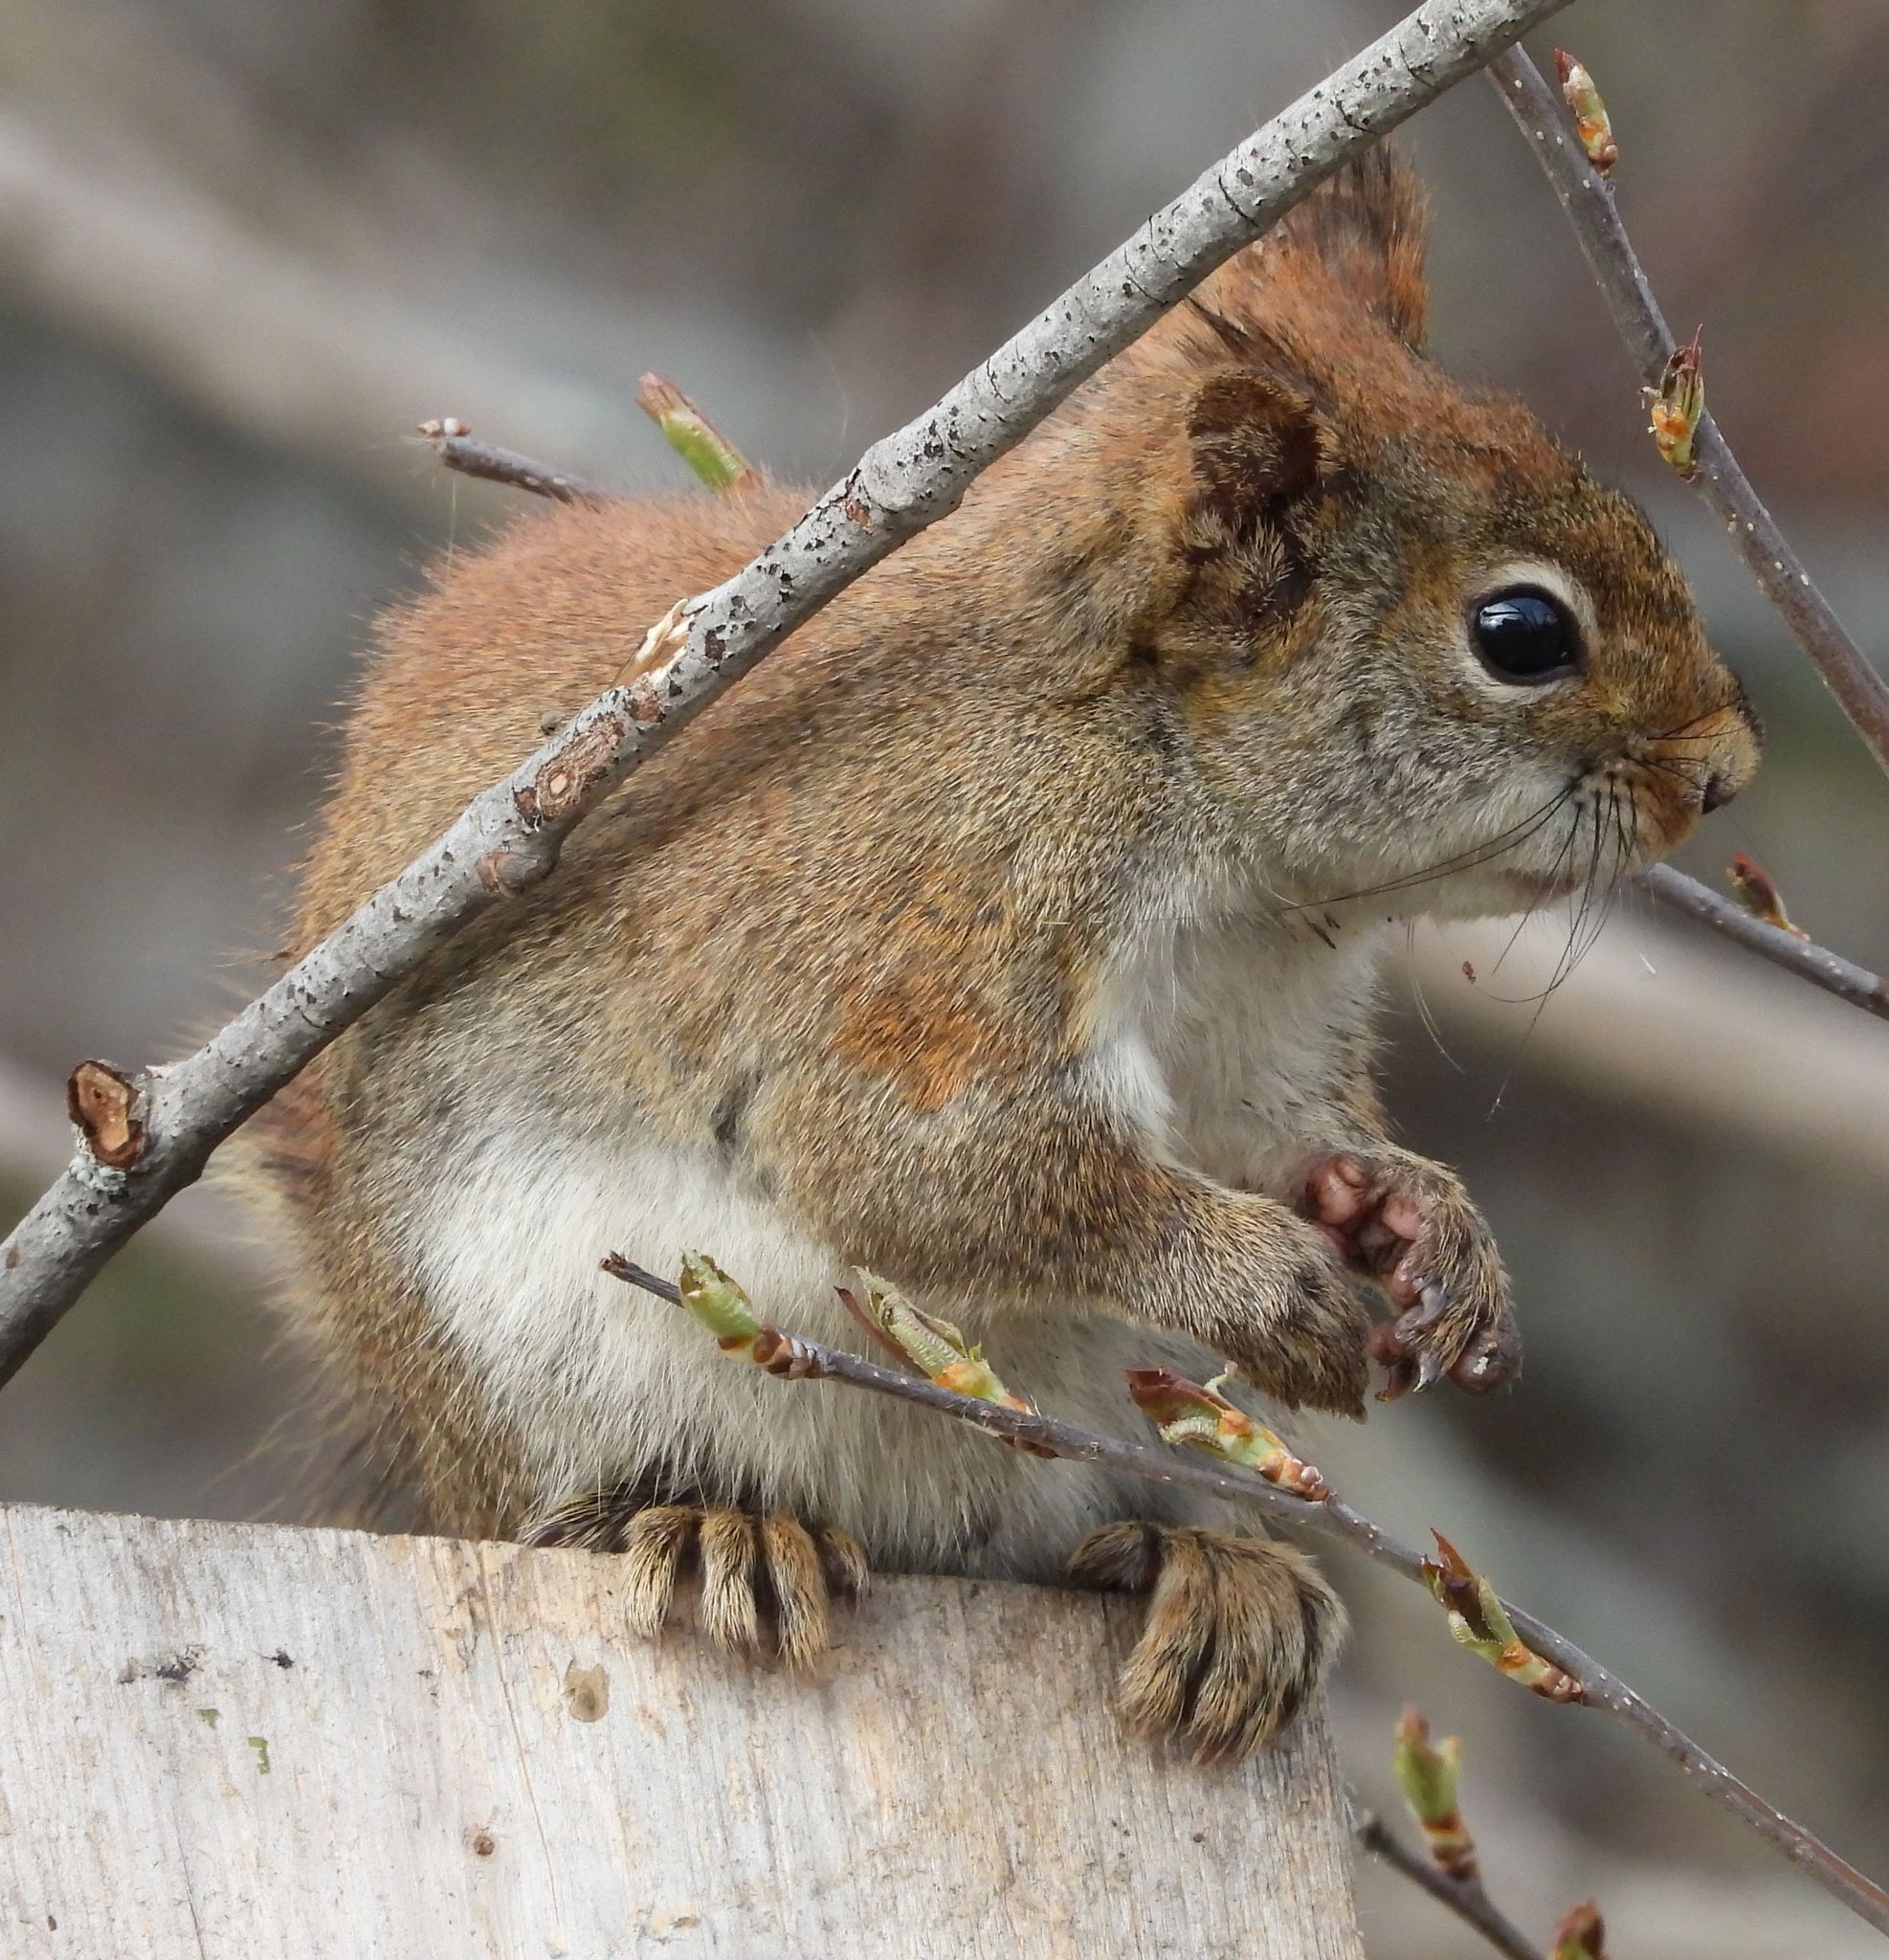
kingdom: Animalia
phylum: Chordata
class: Mammalia
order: Rodentia
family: Sciuridae
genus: Tamiasciurus
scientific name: Tamiasciurus hudsonicus
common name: Red squirrel
